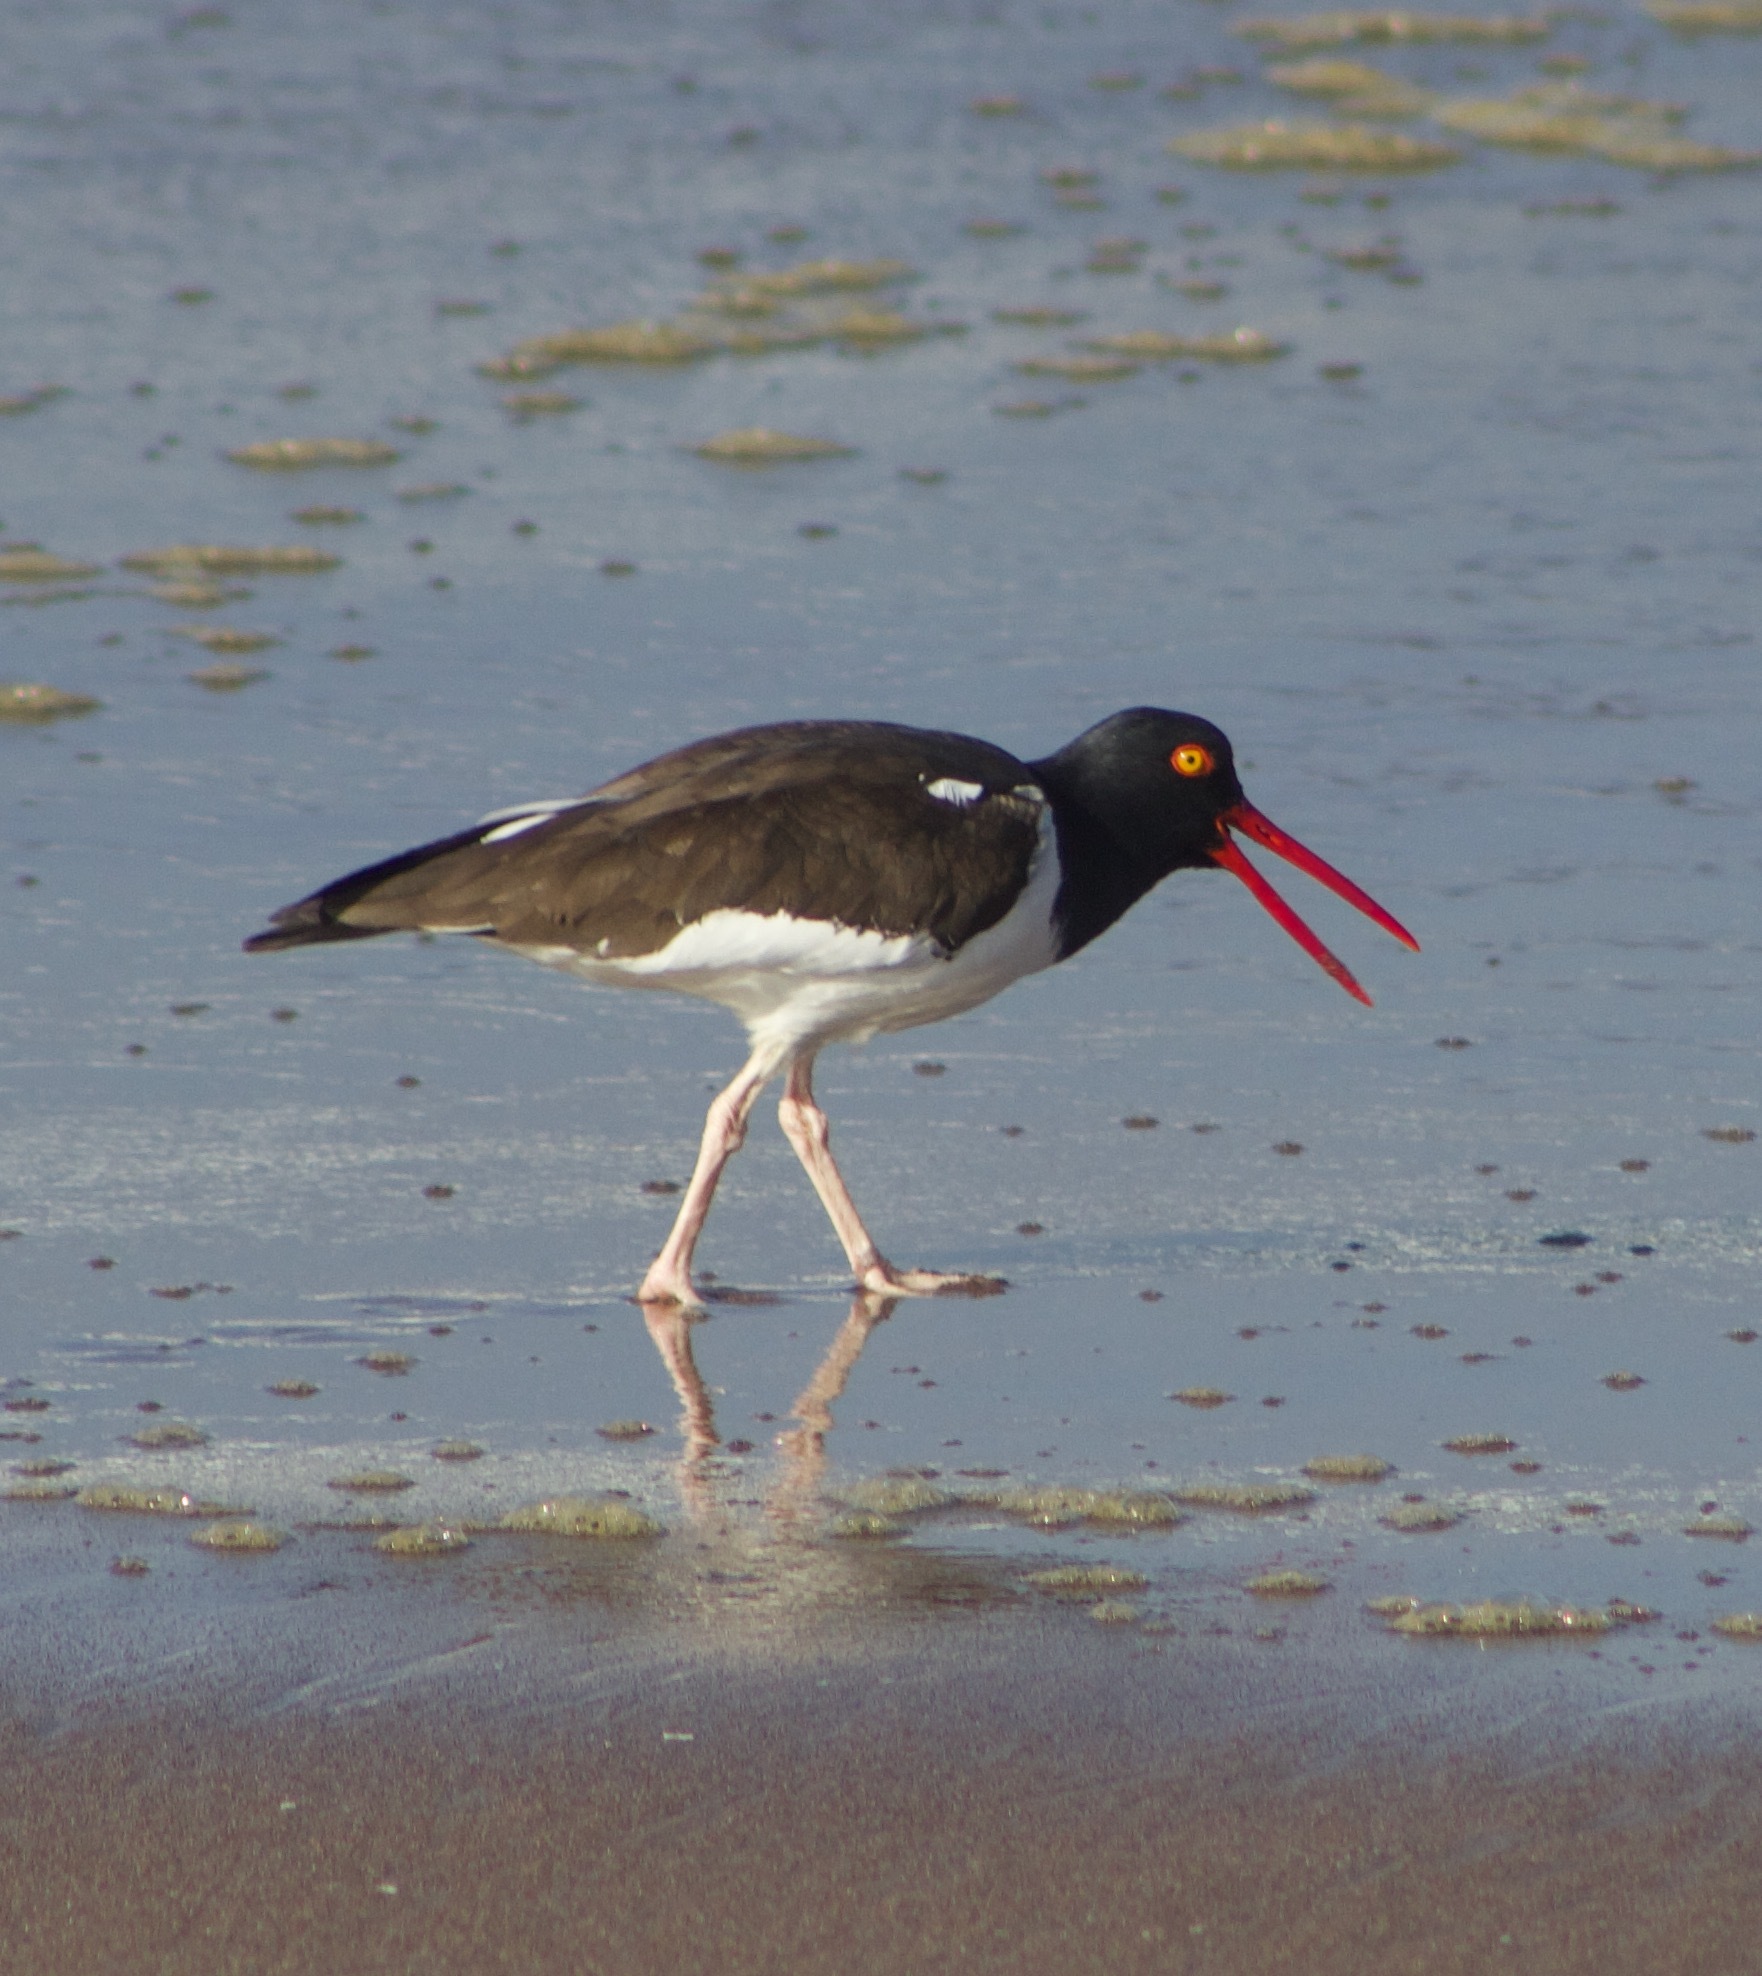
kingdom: Animalia
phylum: Chordata
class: Aves
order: Charadriiformes
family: Haematopodidae
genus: Haematopus
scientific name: Haematopus palliatus
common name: American oystercatcher
